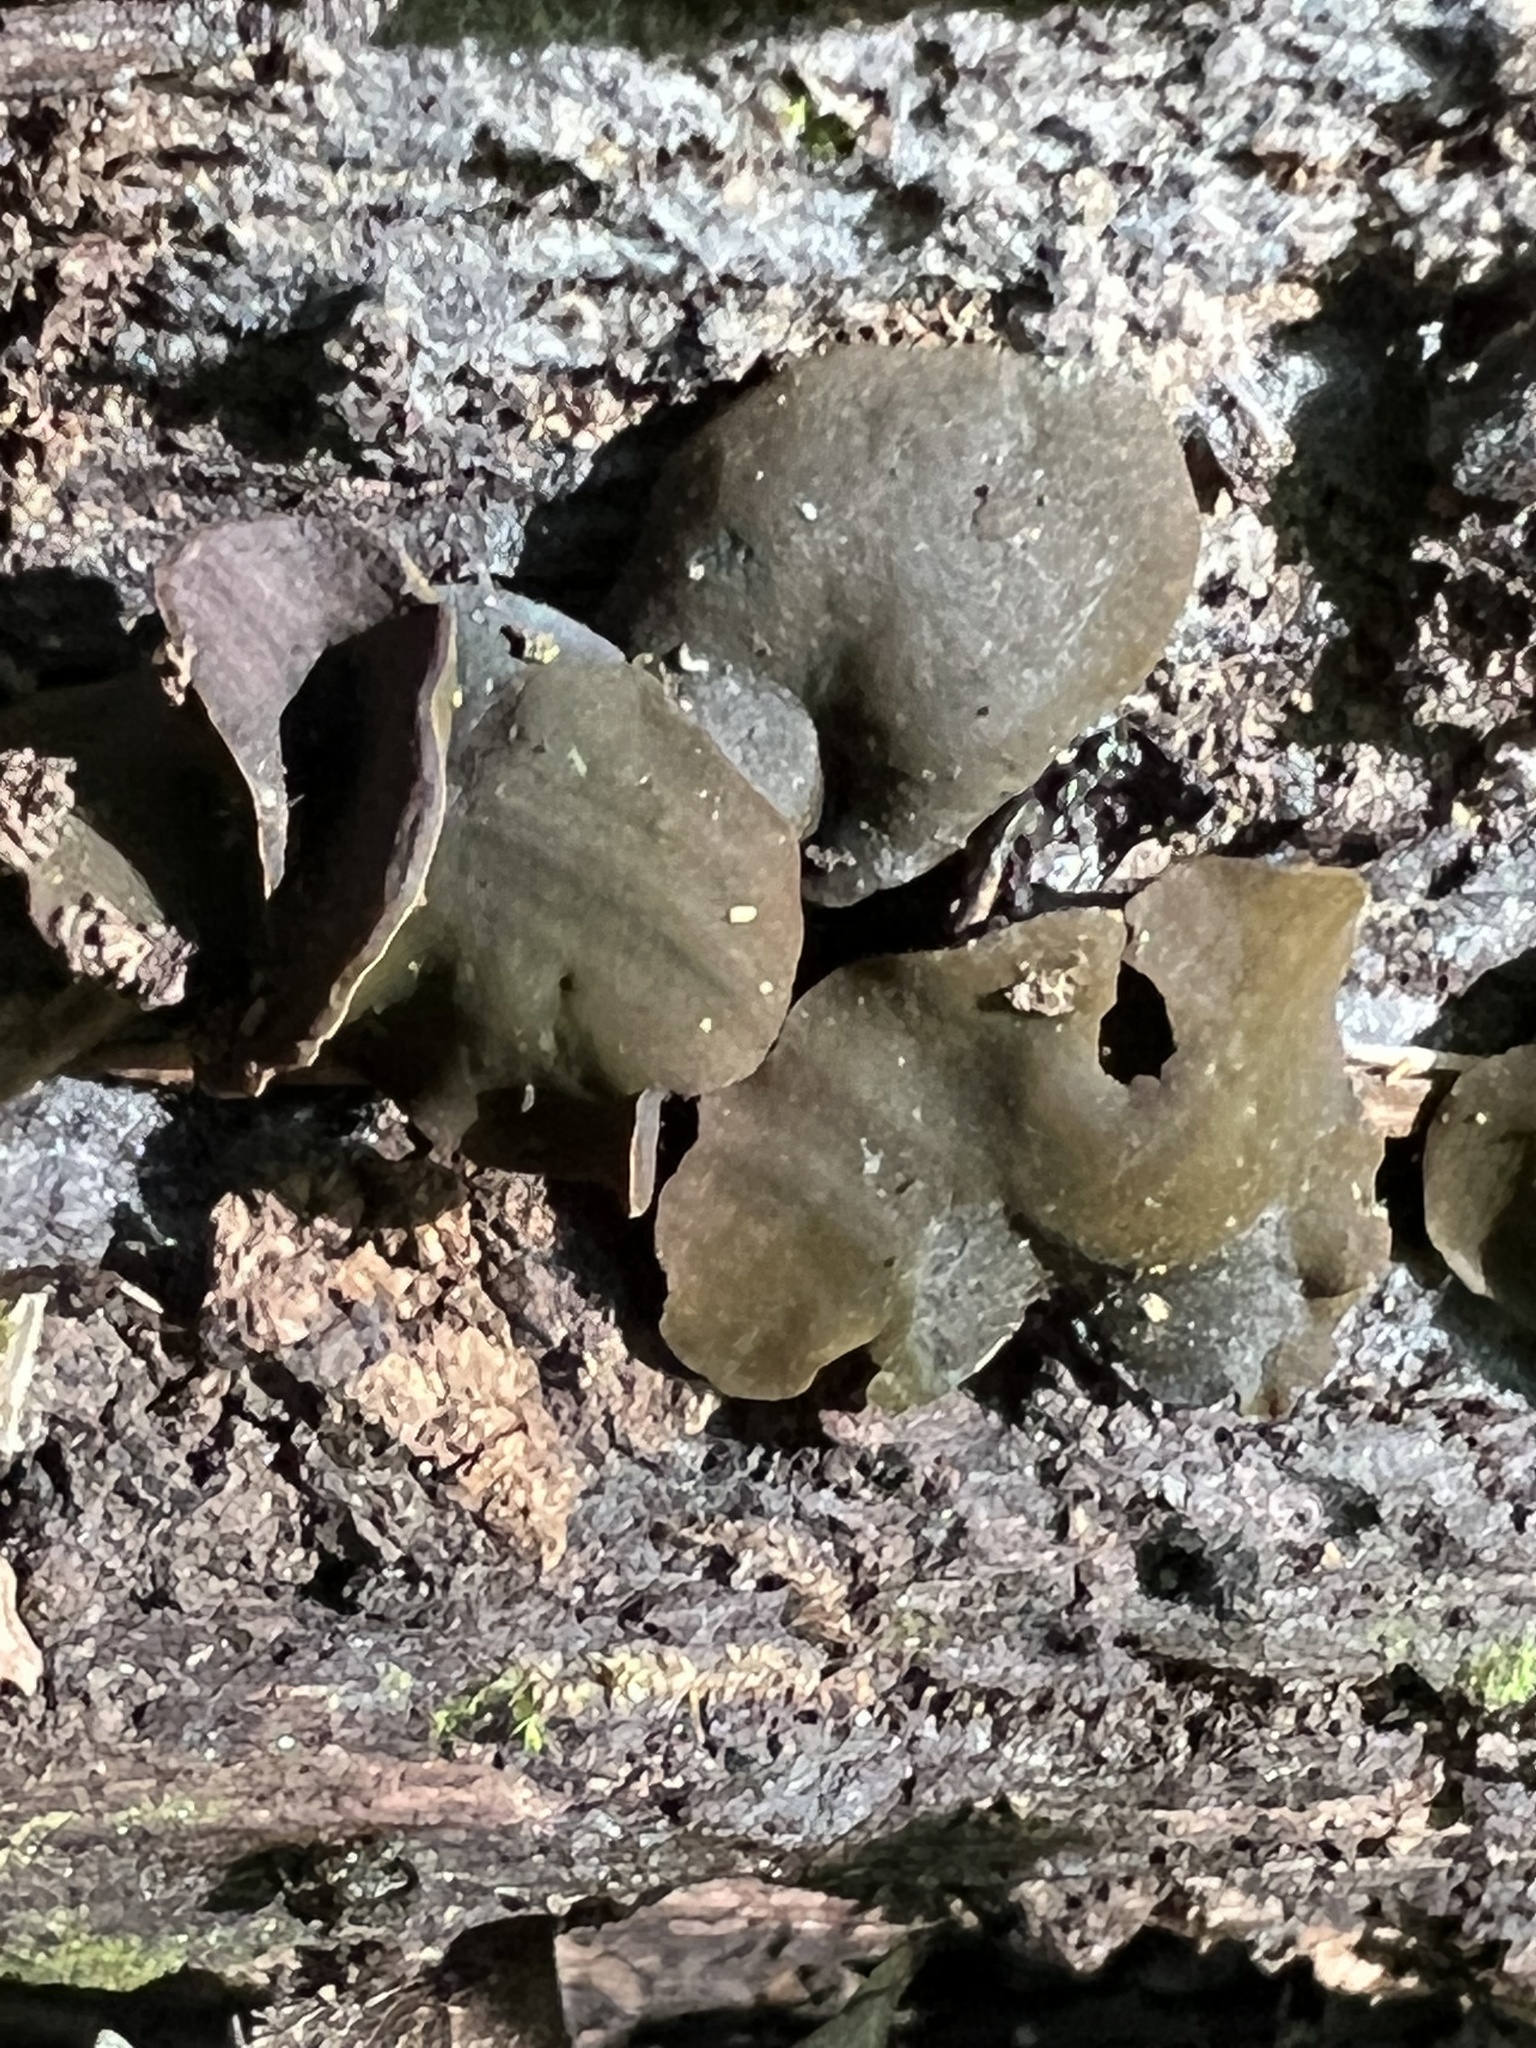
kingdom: Fungi
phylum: Ascomycota
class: Leotiomycetes
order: Helotiales
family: Cenangiaceae
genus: Chlorencoelia
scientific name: Chlorencoelia torta
